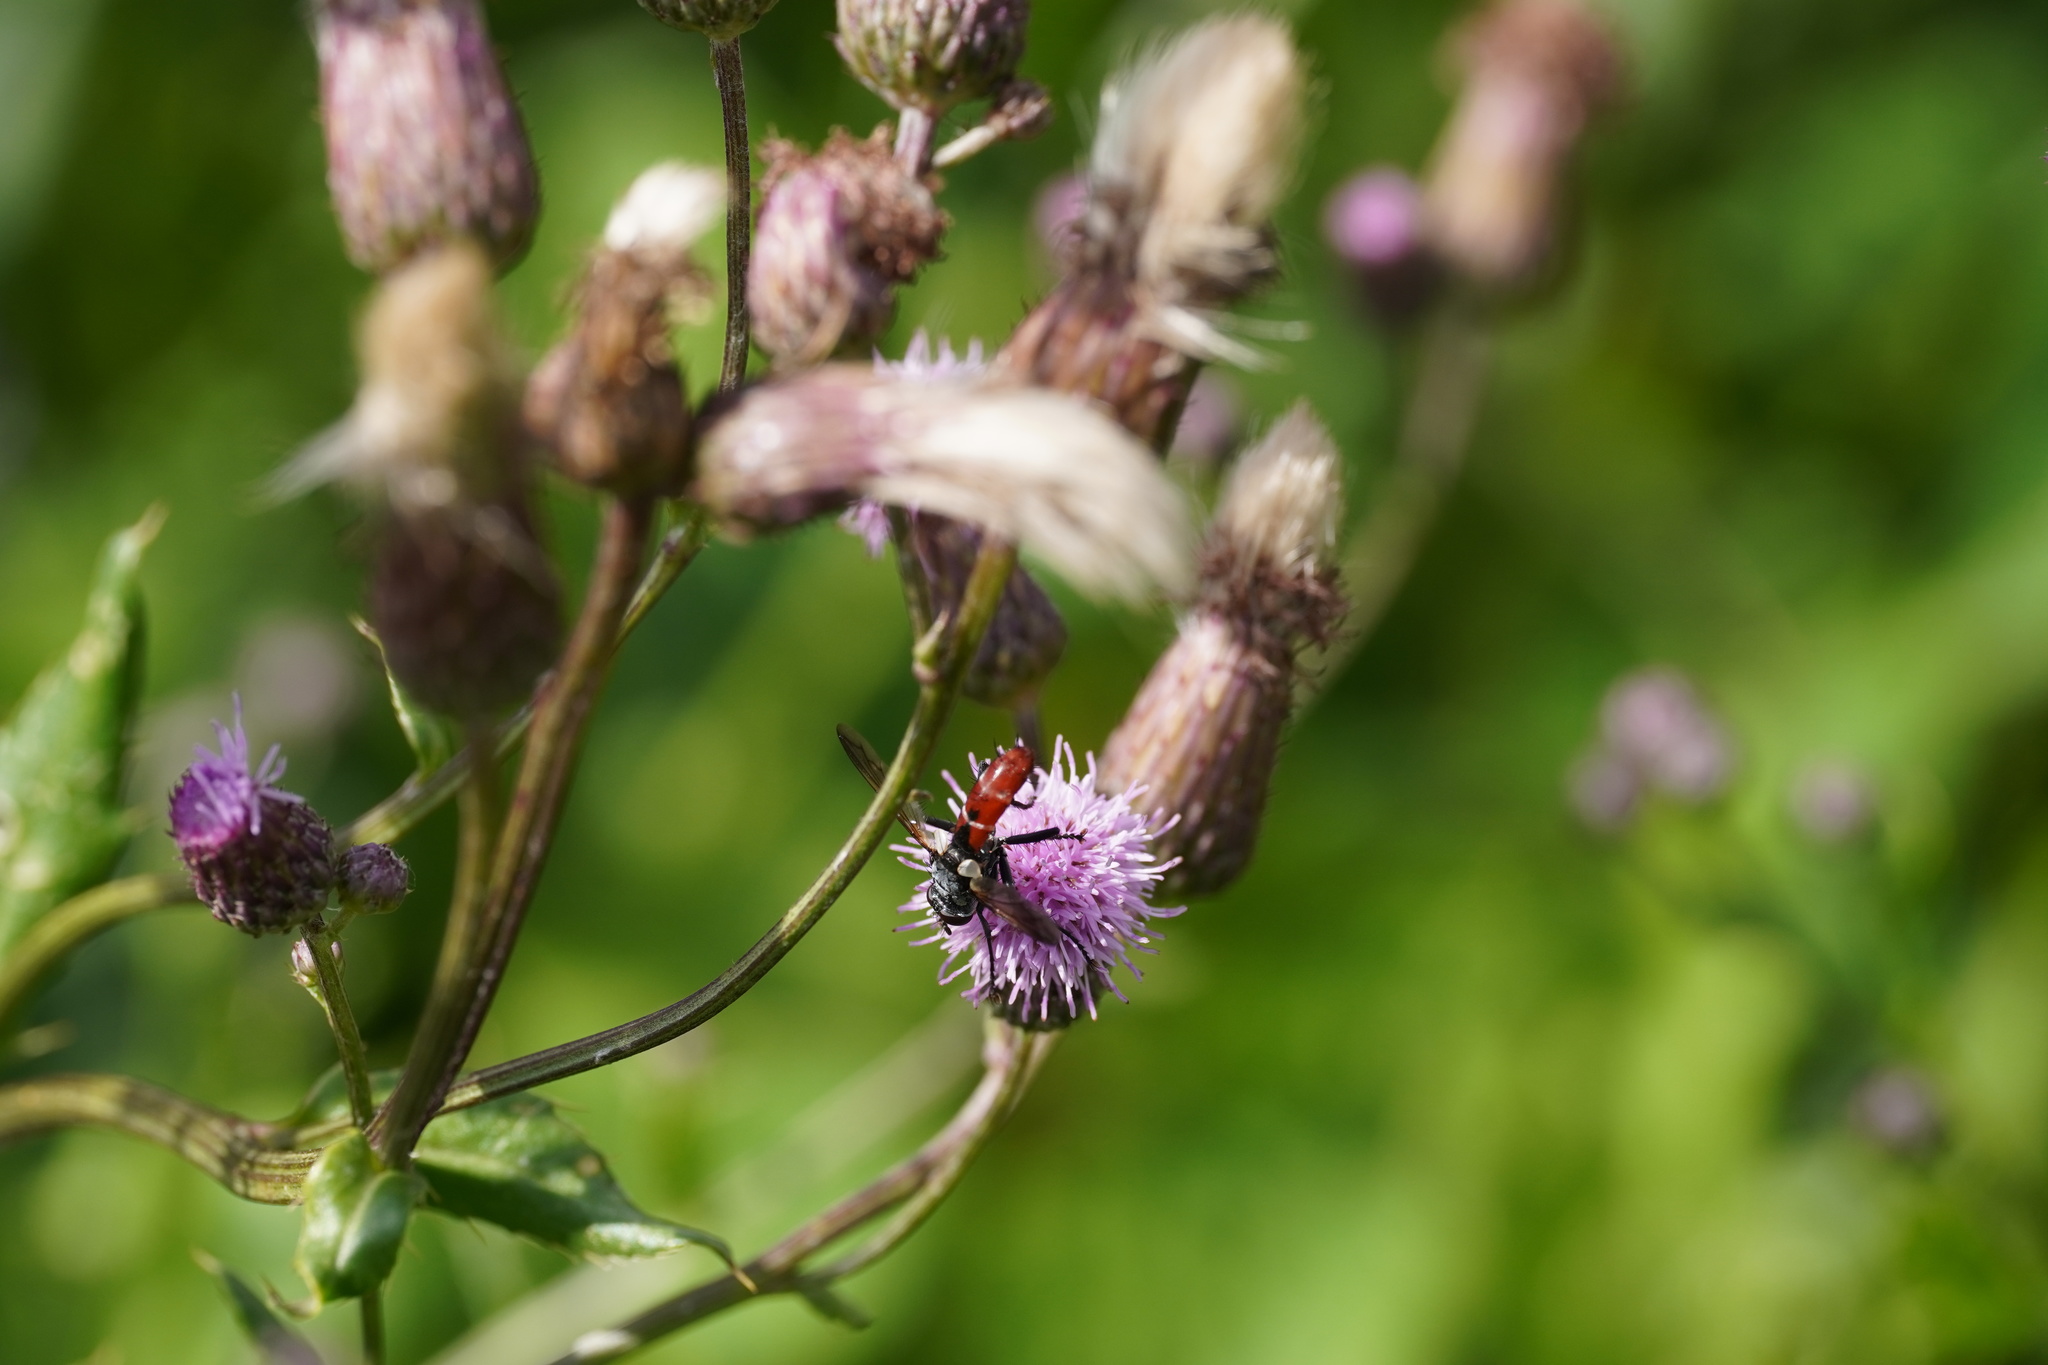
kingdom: Animalia
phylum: Arthropoda
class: Insecta
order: Diptera
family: Tachinidae
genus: Cylindromyia
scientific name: Cylindromyia bicolor
